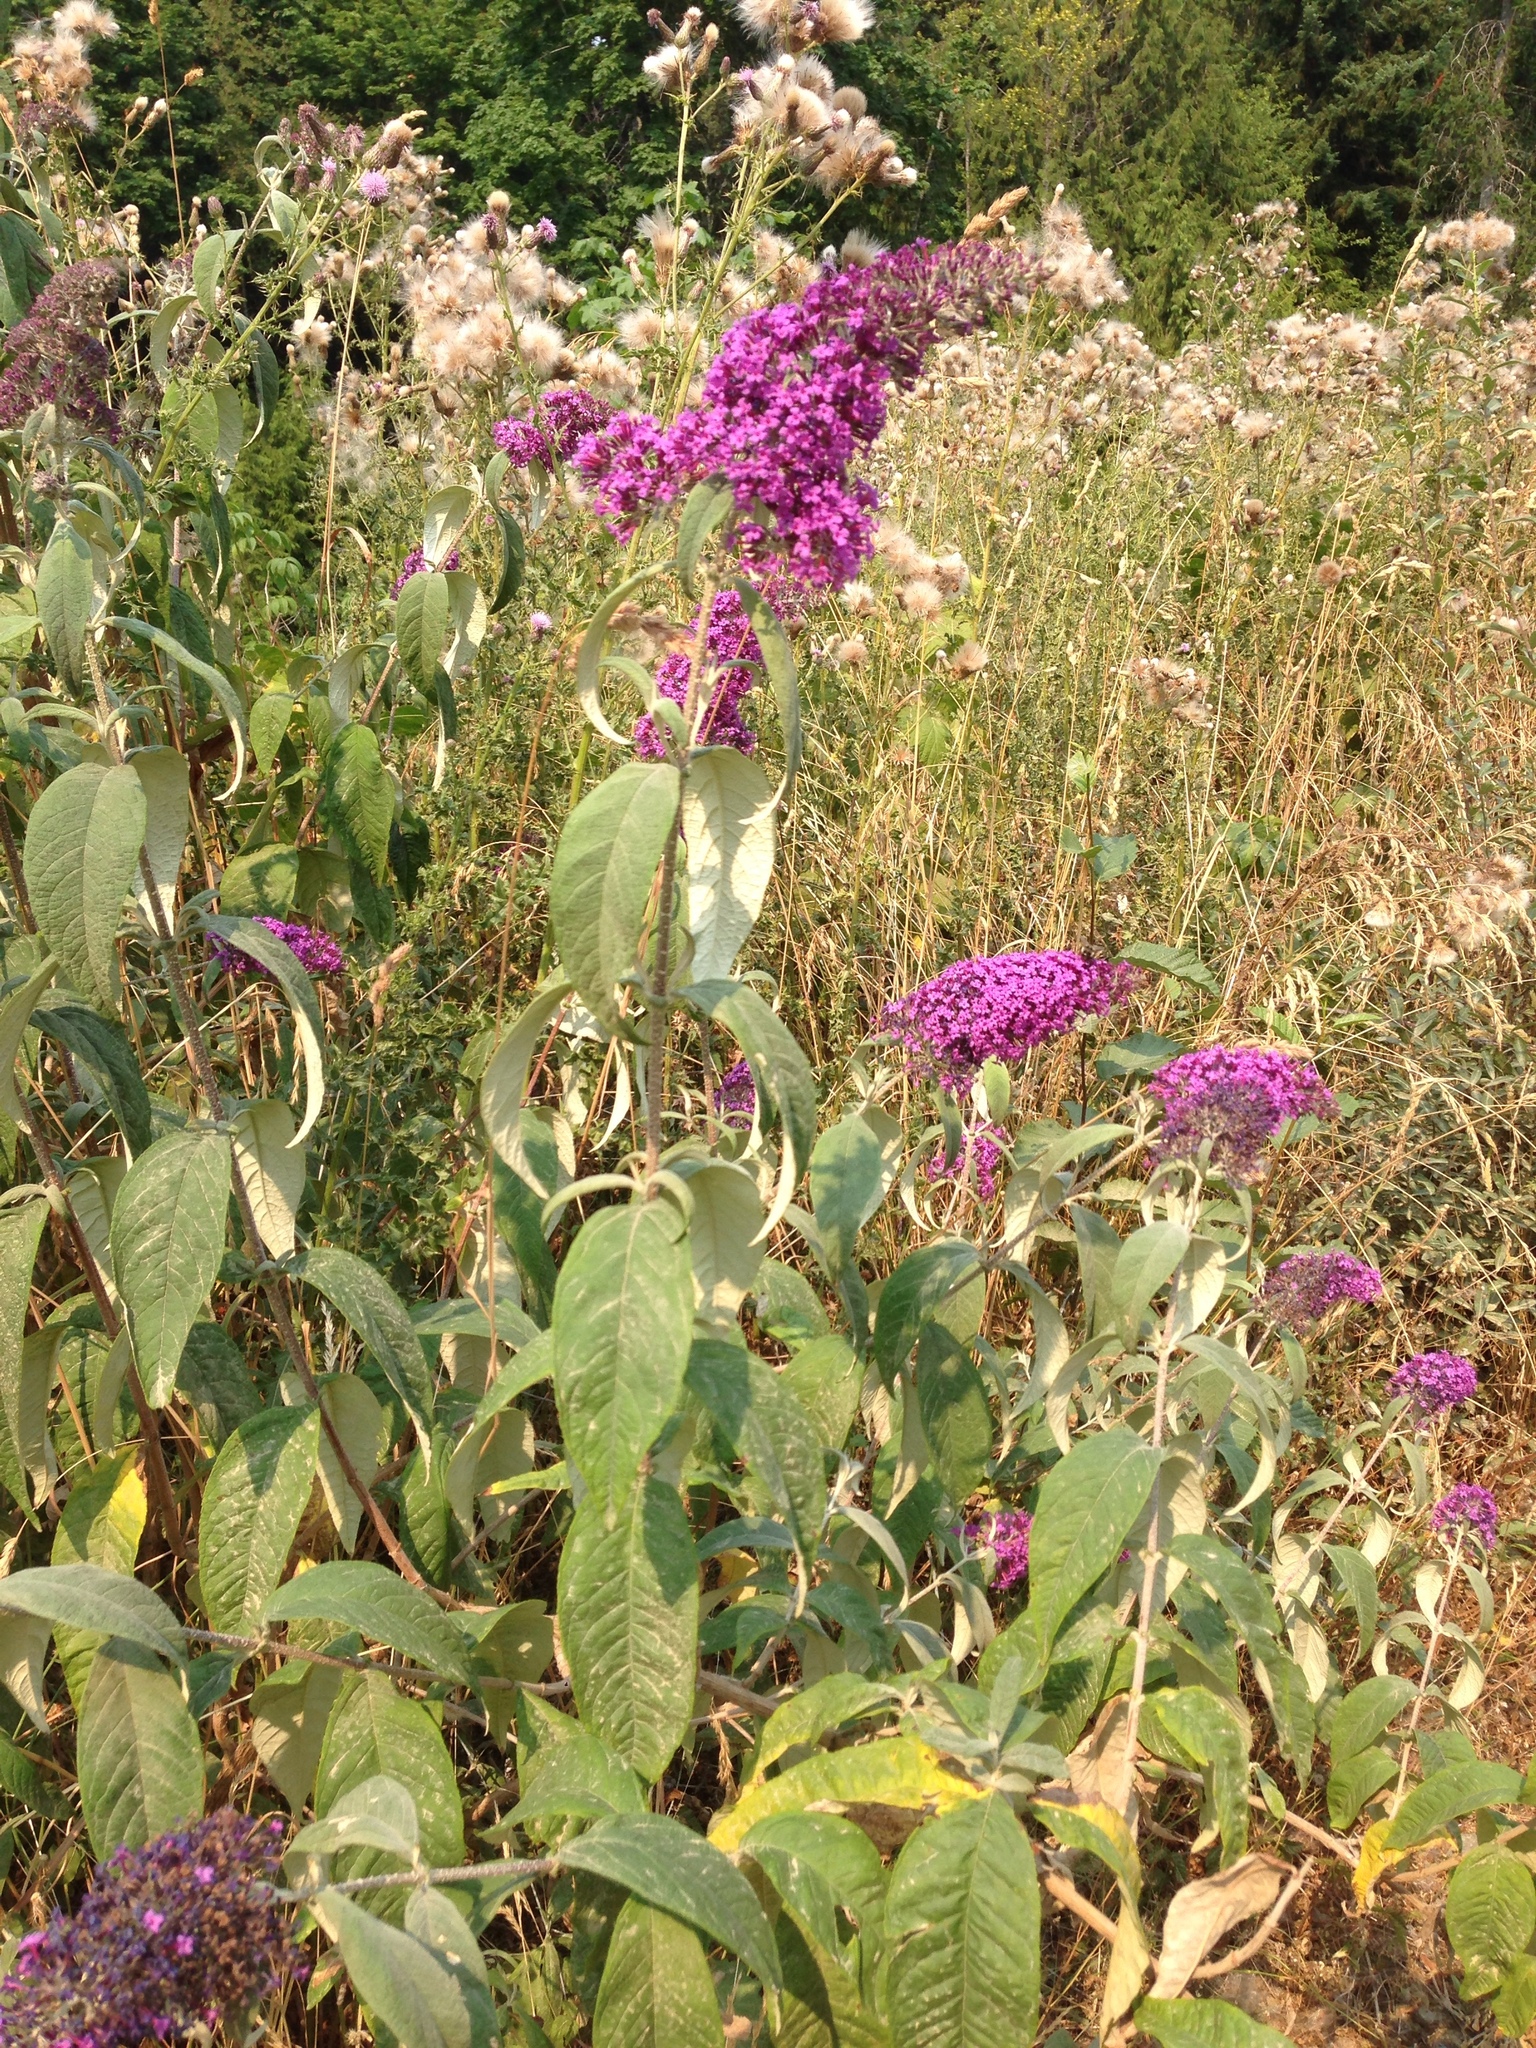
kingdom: Plantae
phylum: Tracheophyta
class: Magnoliopsida
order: Lamiales
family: Scrophulariaceae
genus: Buddleja
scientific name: Buddleja davidii
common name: Butterfly-bush
